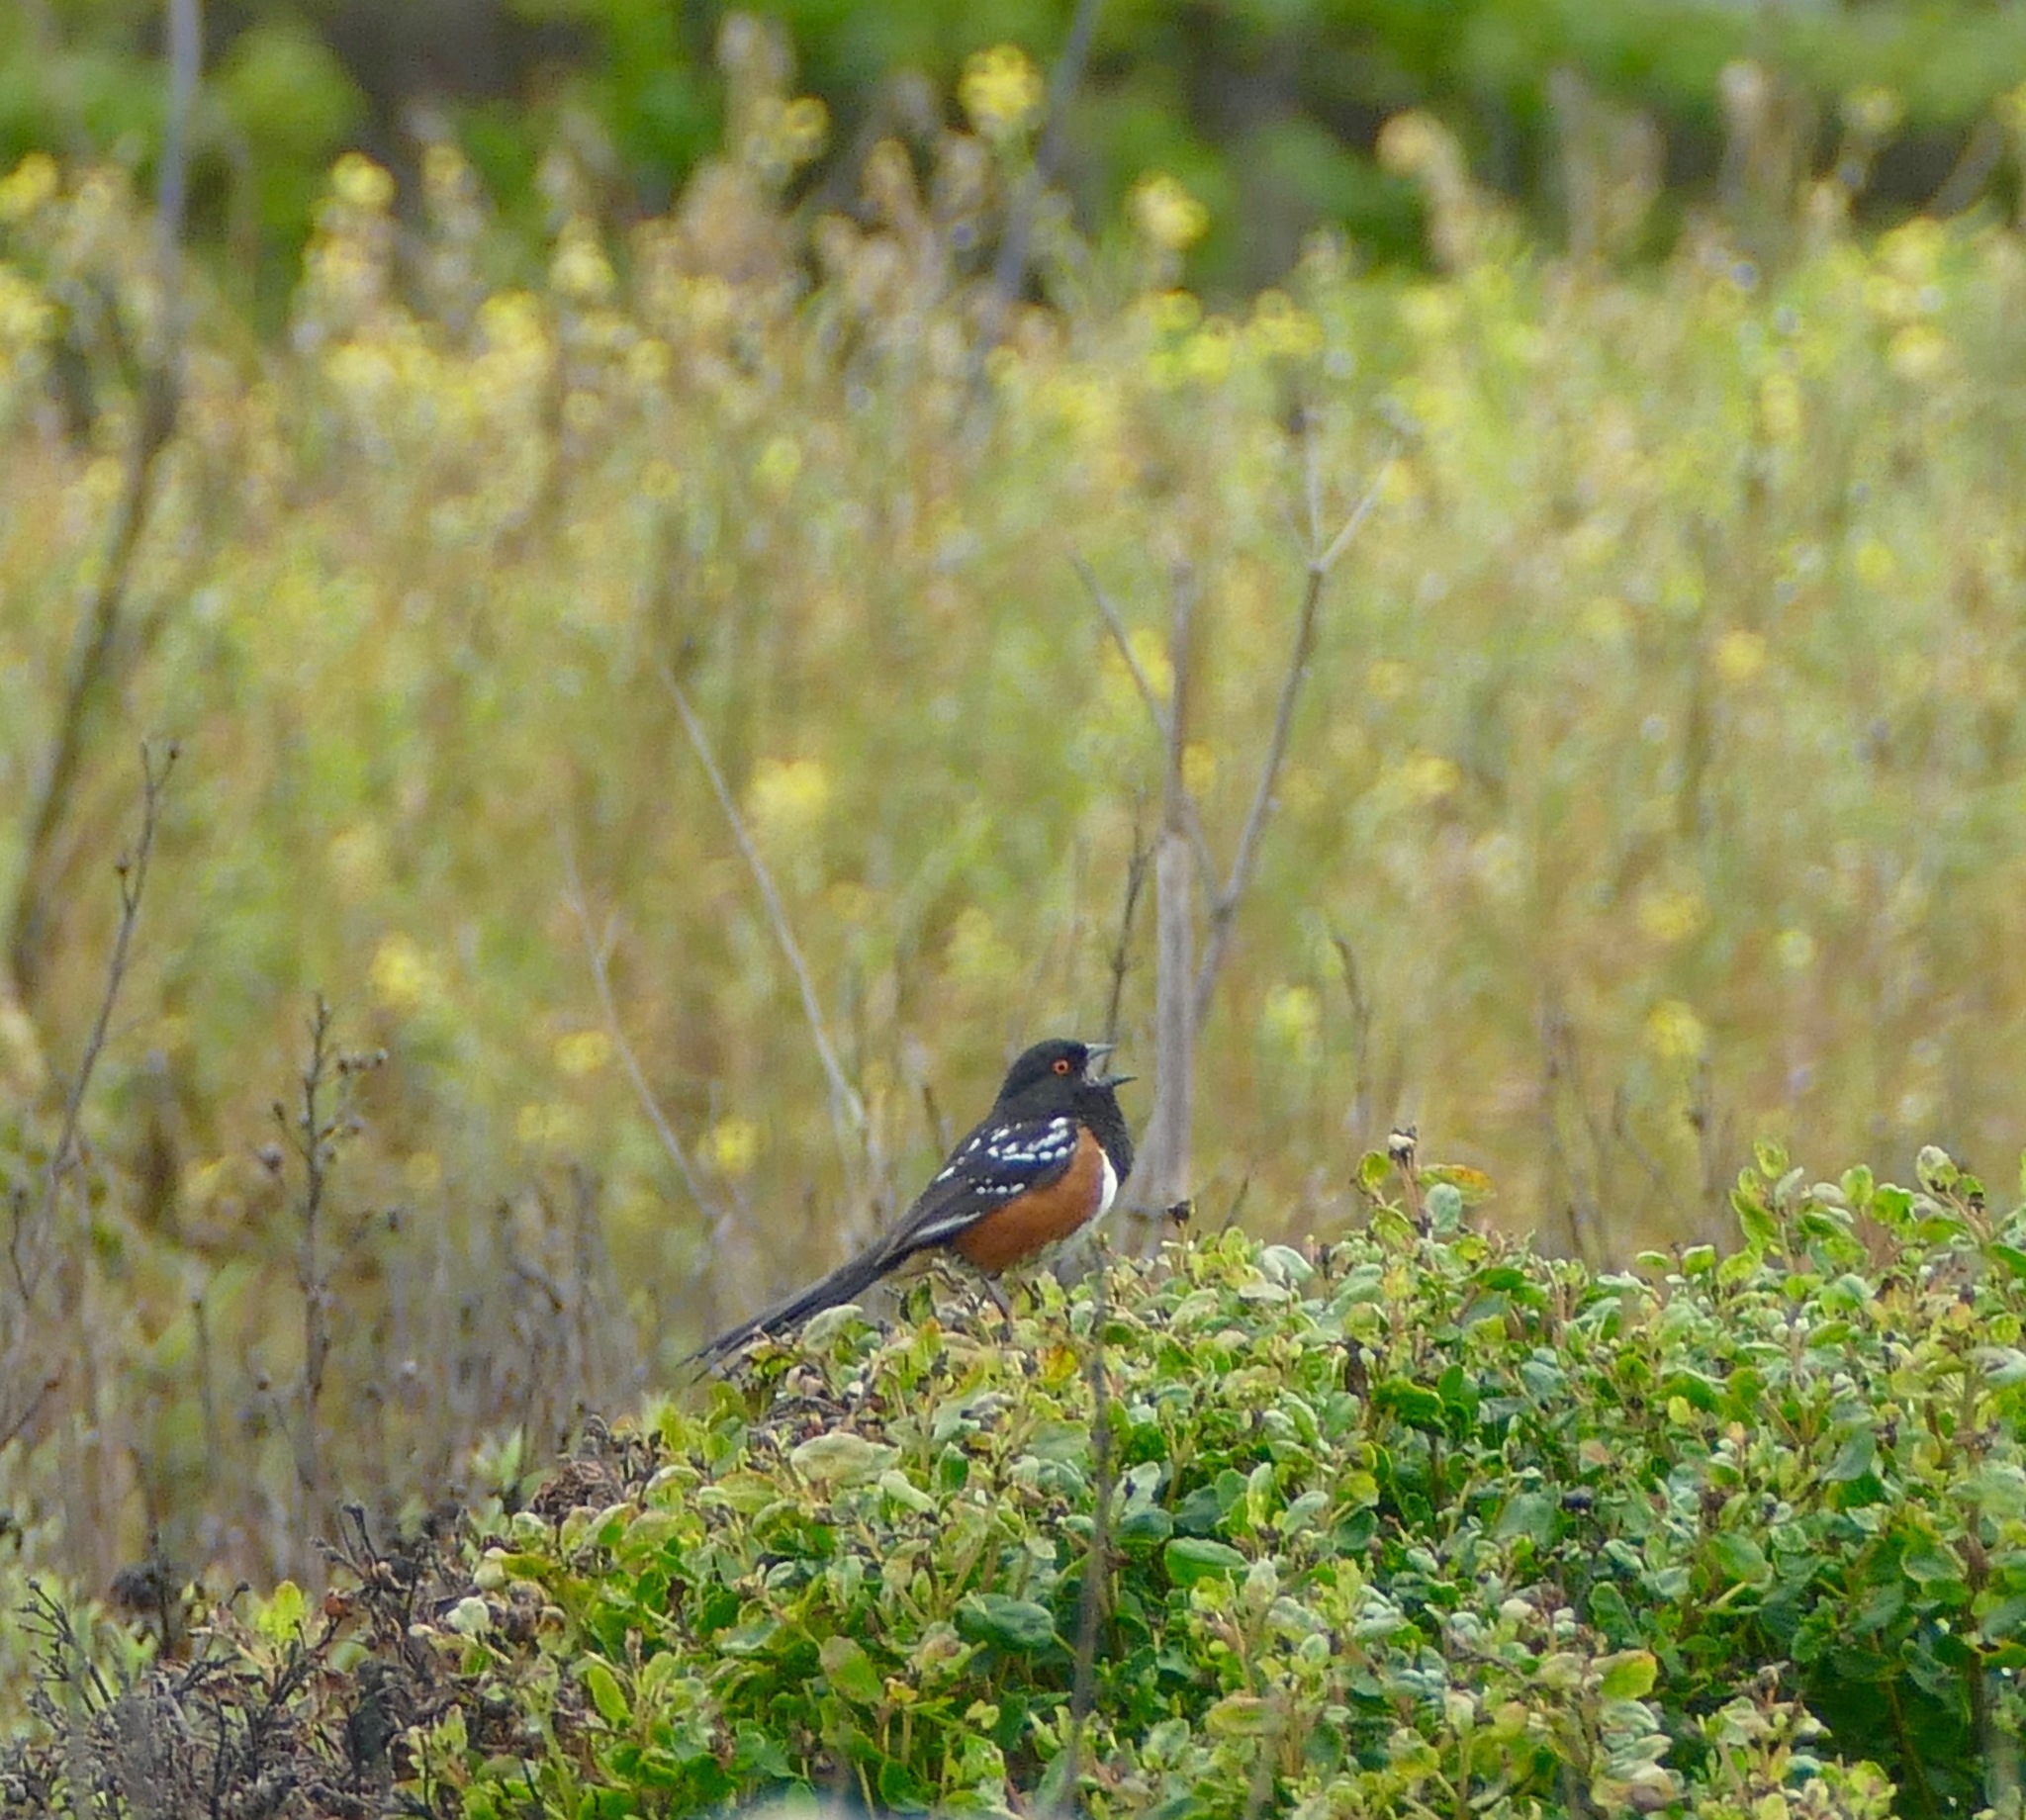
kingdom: Animalia
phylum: Chordata
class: Aves
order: Passeriformes
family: Passerellidae
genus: Pipilo
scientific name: Pipilo maculatus
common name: Spotted towhee
